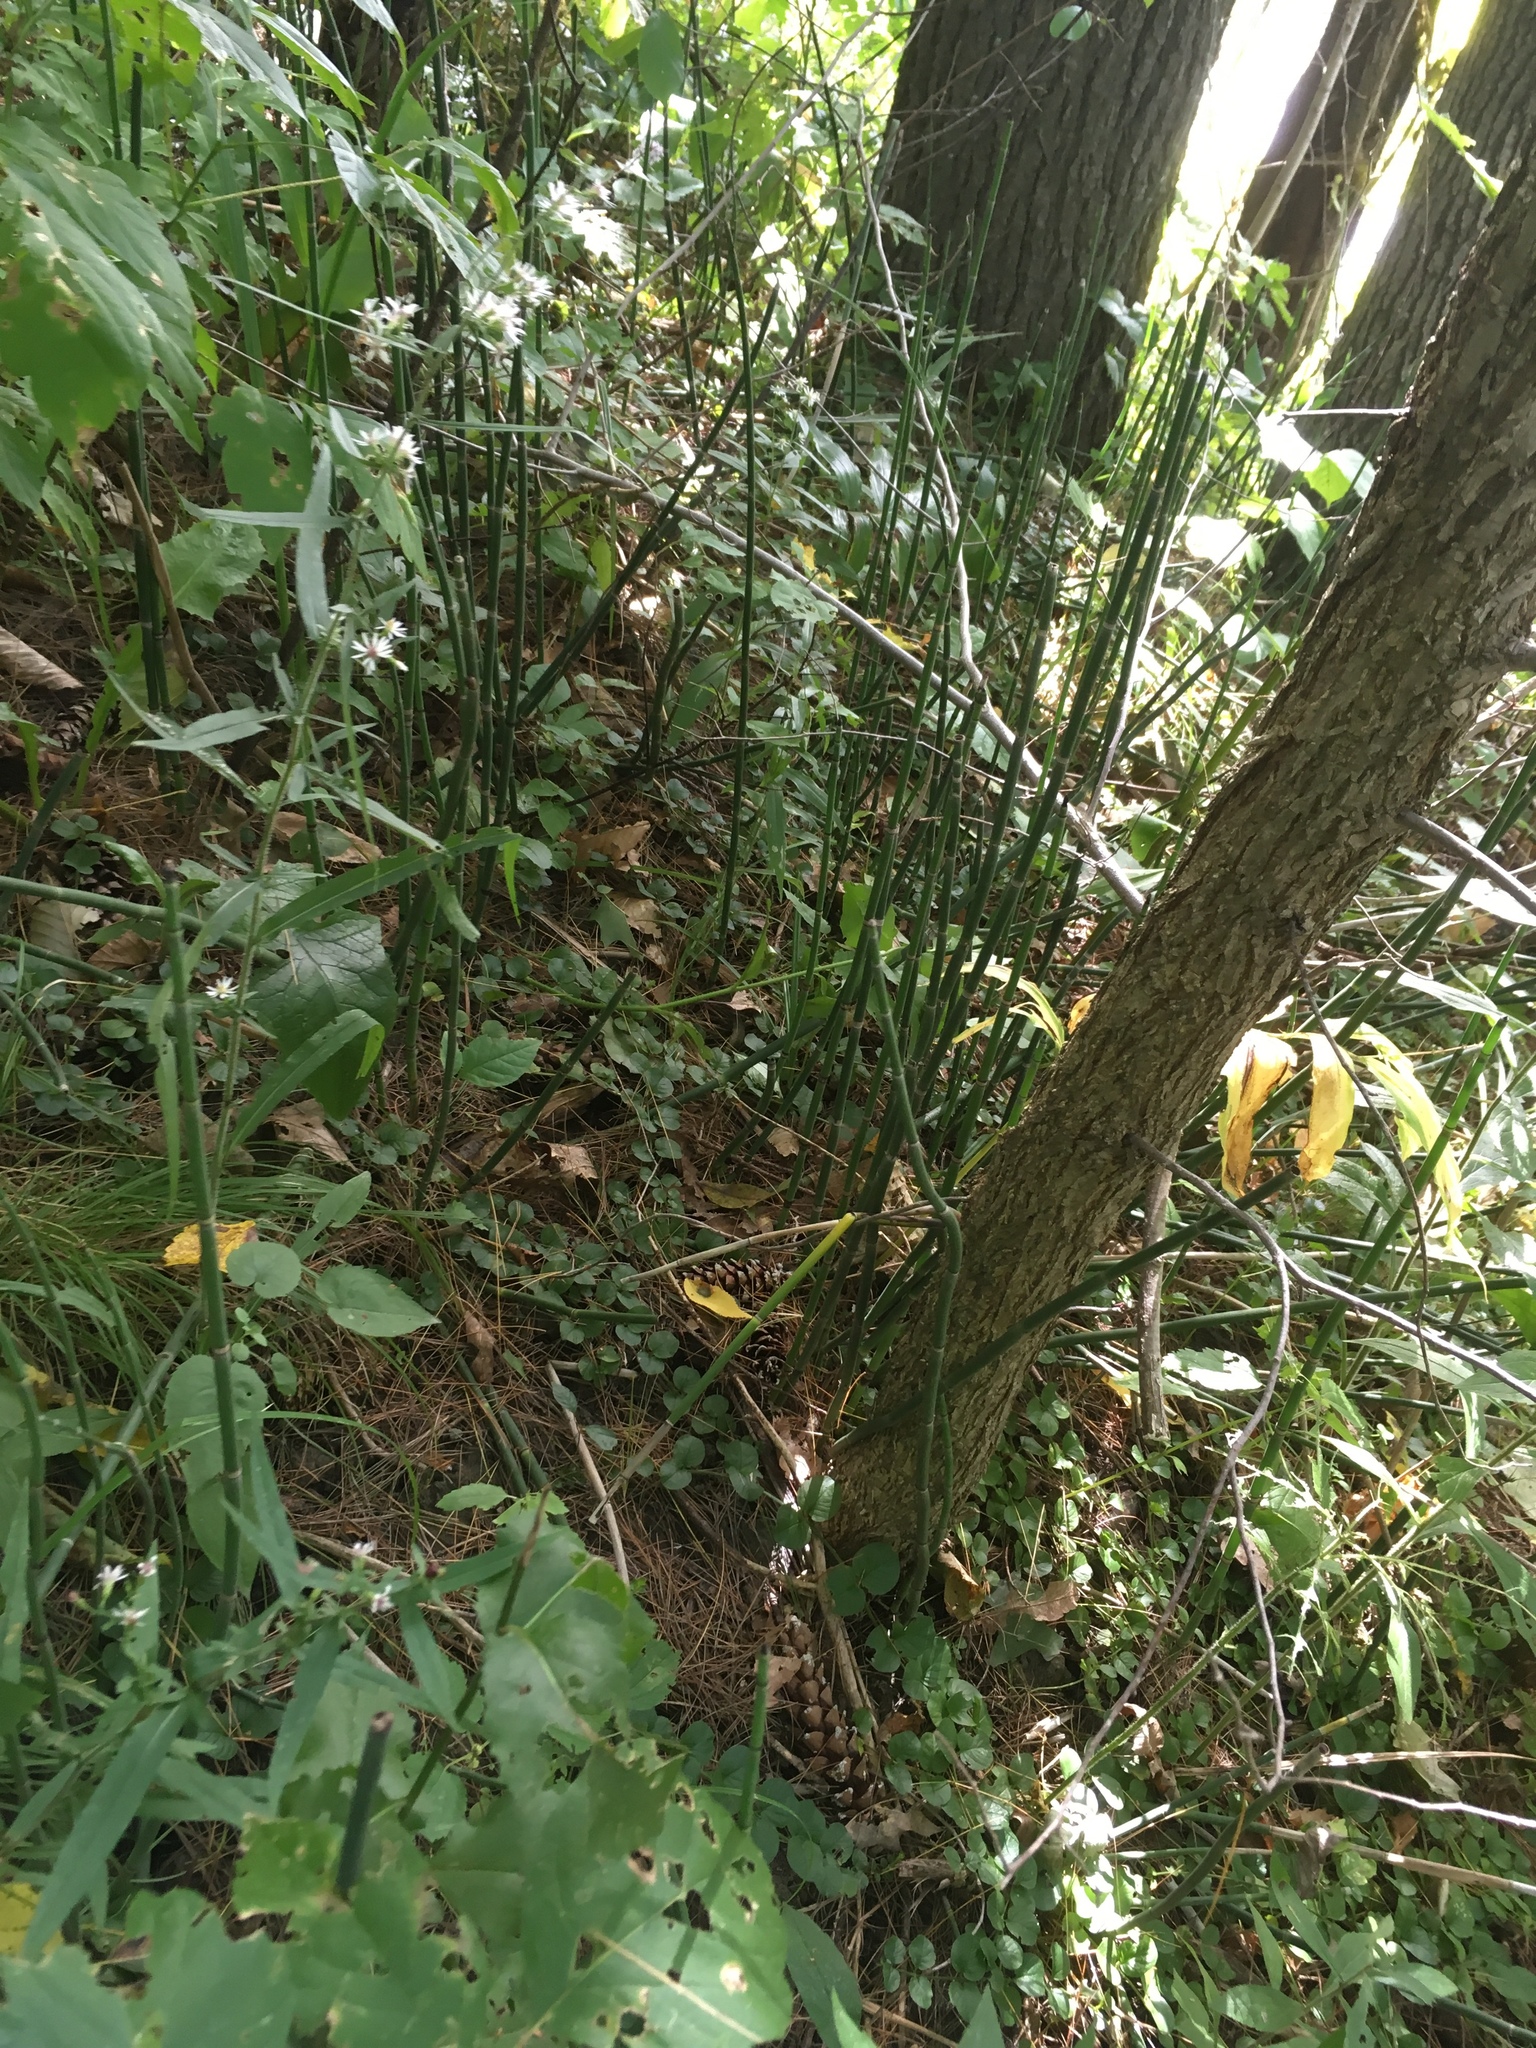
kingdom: Plantae
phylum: Tracheophyta
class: Polypodiopsida
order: Equisetales
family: Equisetaceae
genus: Equisetum
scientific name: Equisetum hyemale
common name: Rough horsetail
